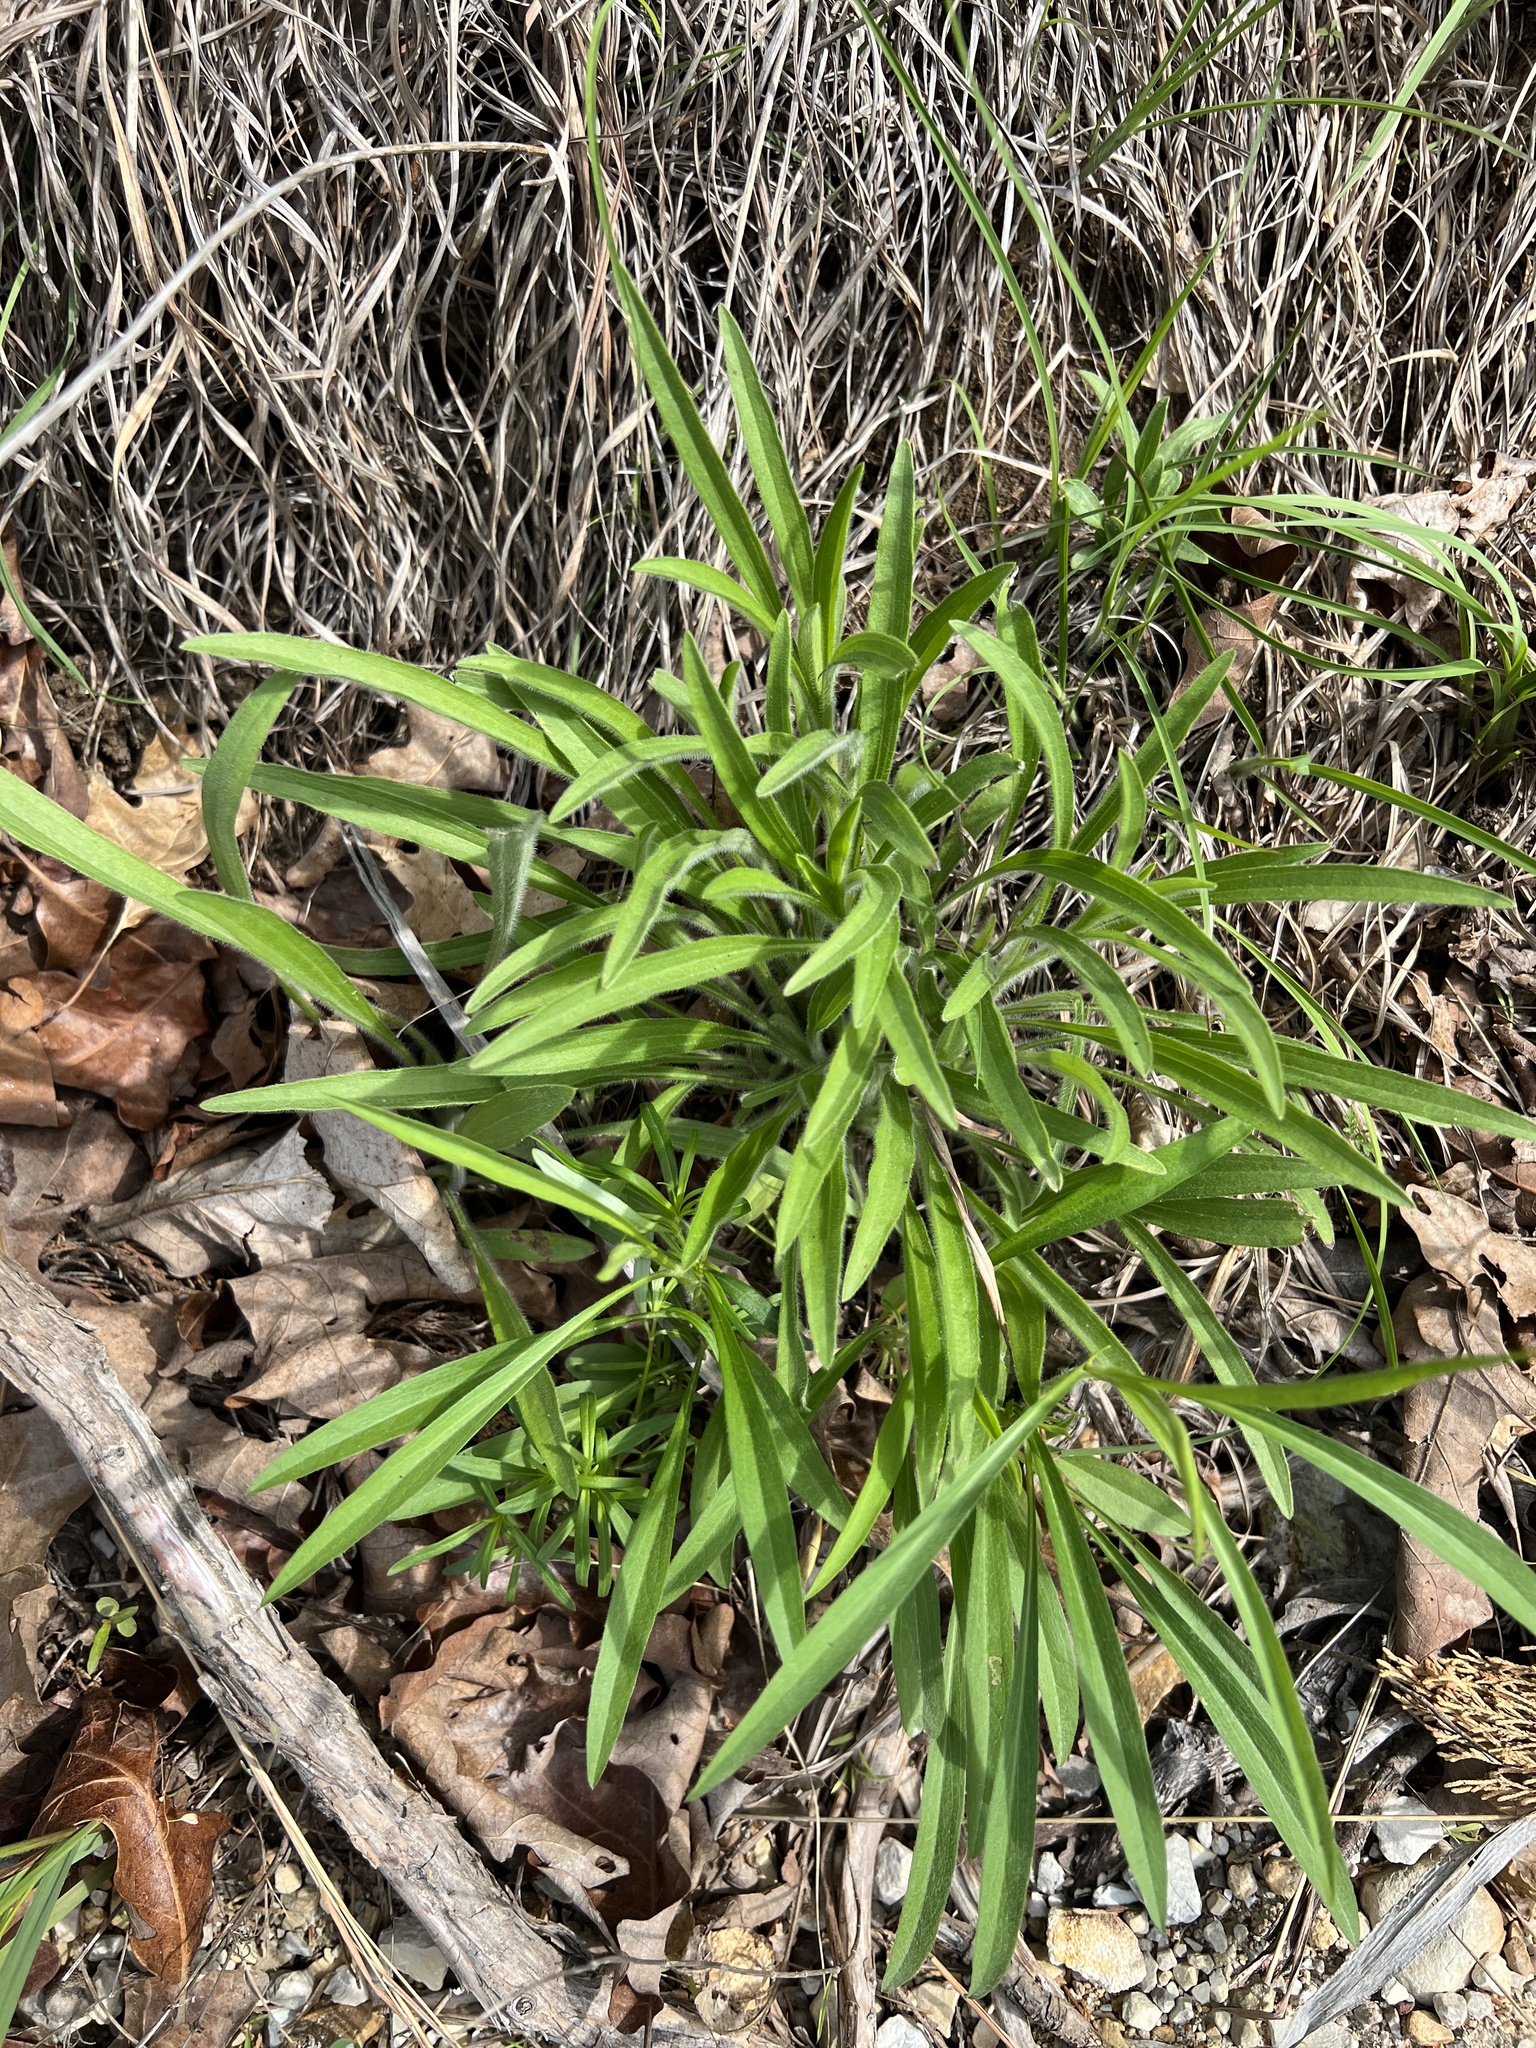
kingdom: Plantae
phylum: Tracheophyta
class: Magnoliopsida
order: Asterales
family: Asteraceae
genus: Rudbeckia
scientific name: Rudbeckia missouriensis
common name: Missouri coneflower
